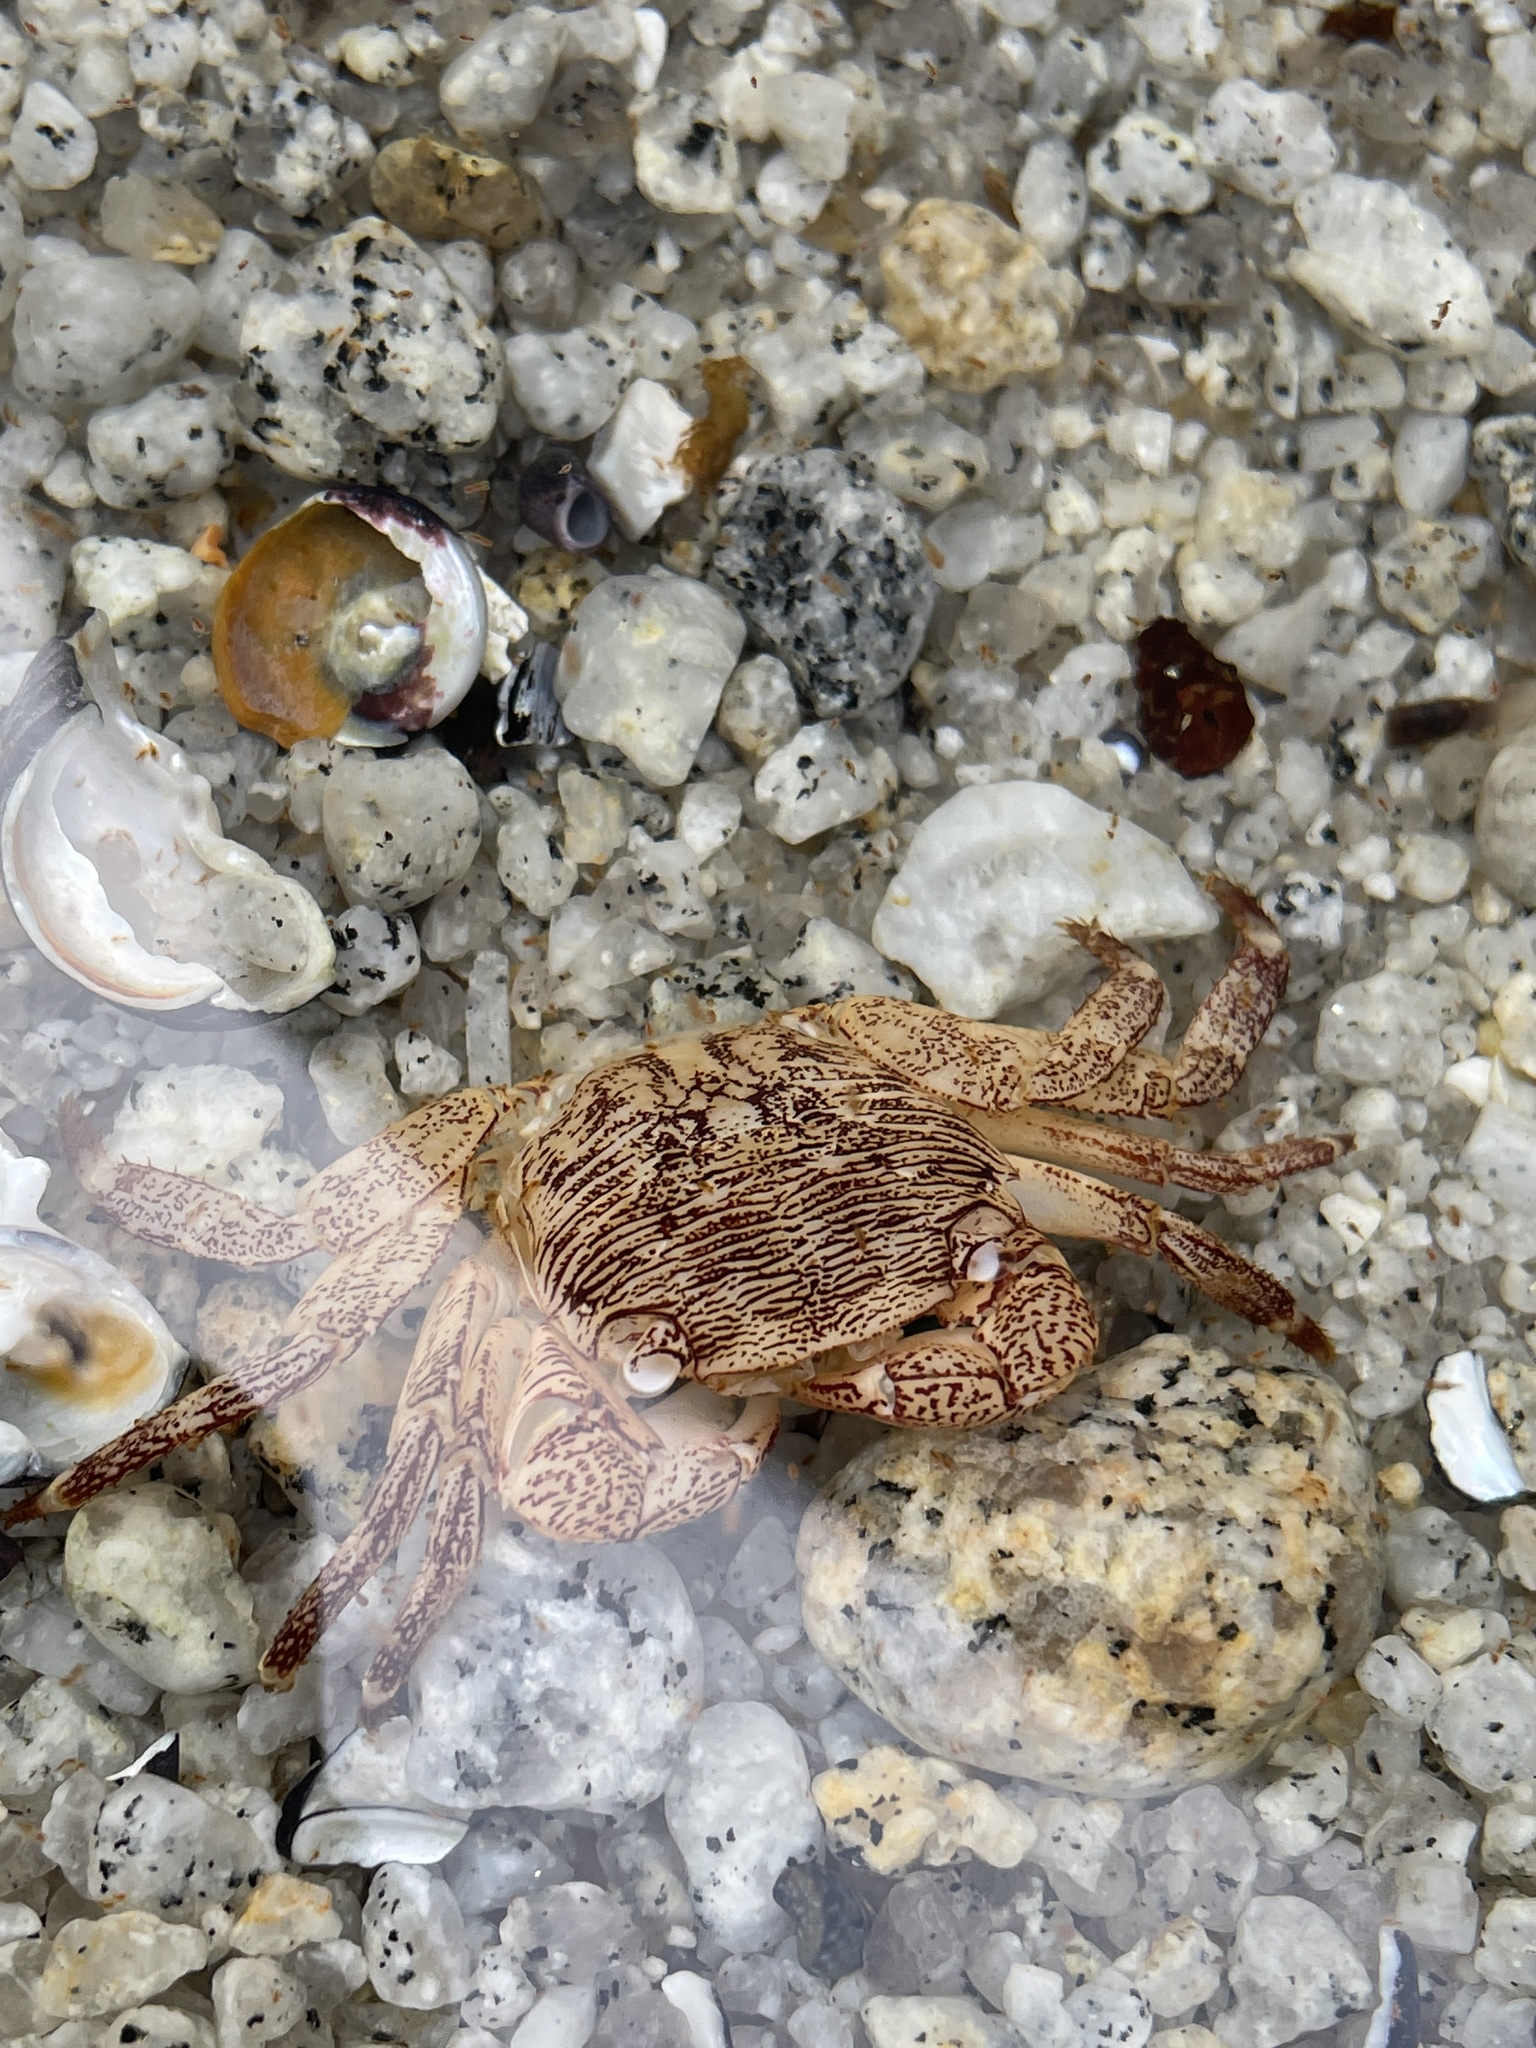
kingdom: Animalia
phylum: Arthropoda
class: Malacostraca
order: Decapoda
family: Grapsidae
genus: Pachygrapsus
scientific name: Pachygrapsus crassipes
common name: Striped shore crab
